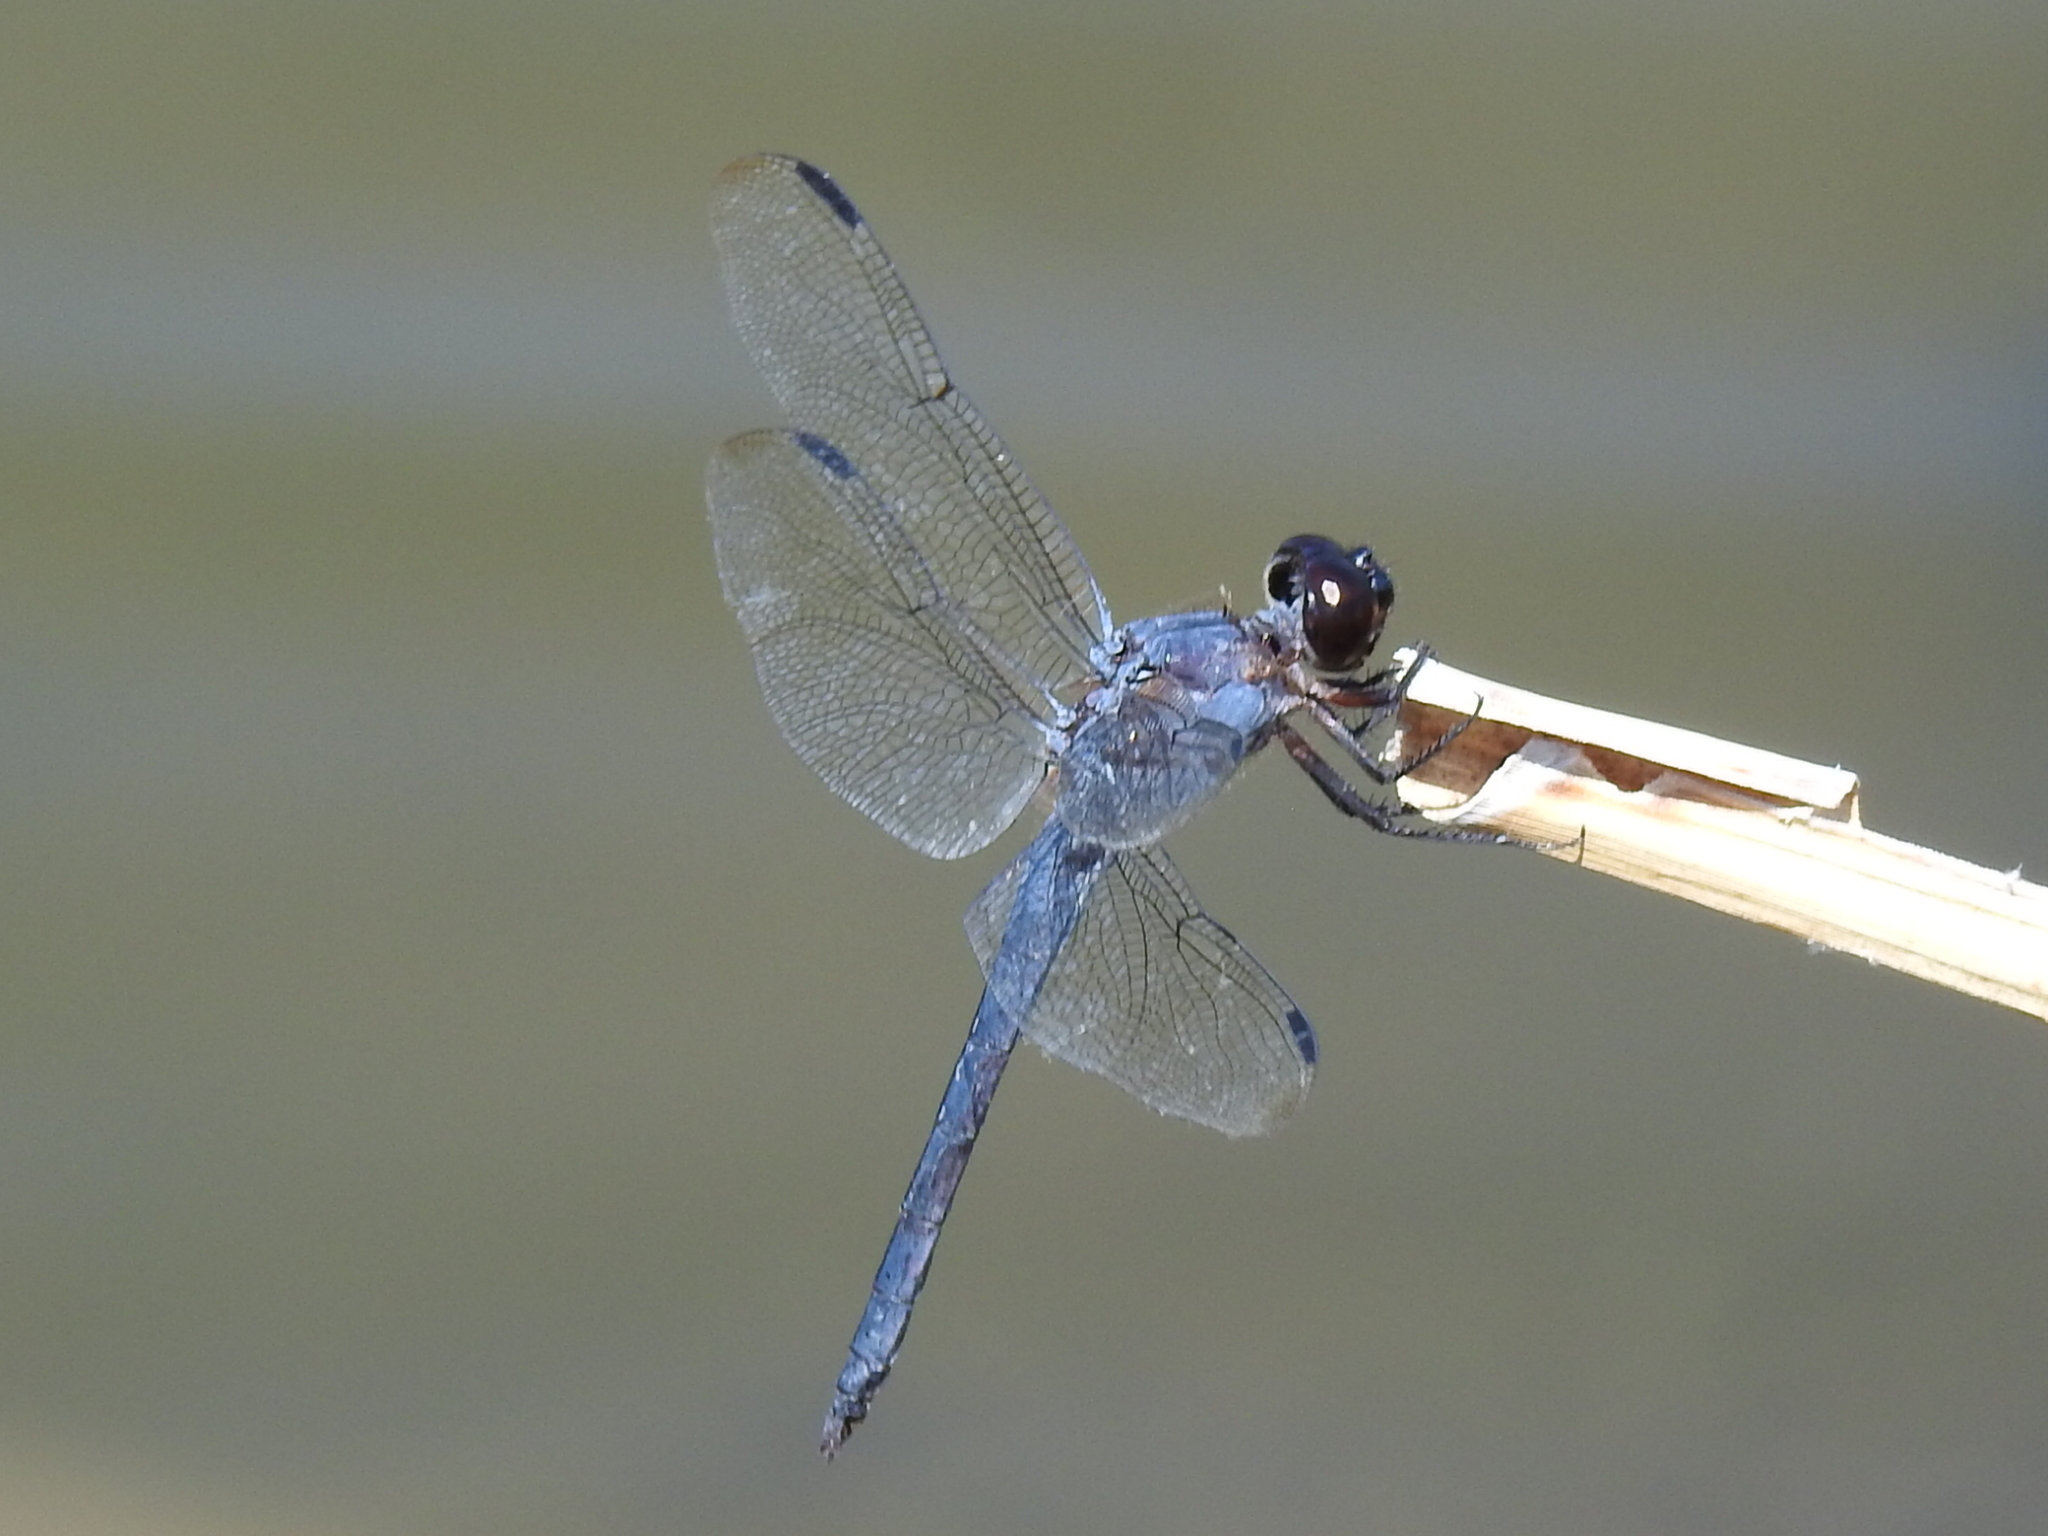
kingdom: Animalia
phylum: Arthropoda
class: Insecta
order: Odonata
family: Libellulidae
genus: Libellula
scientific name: Libellula incesta
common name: Slaty skimmer
